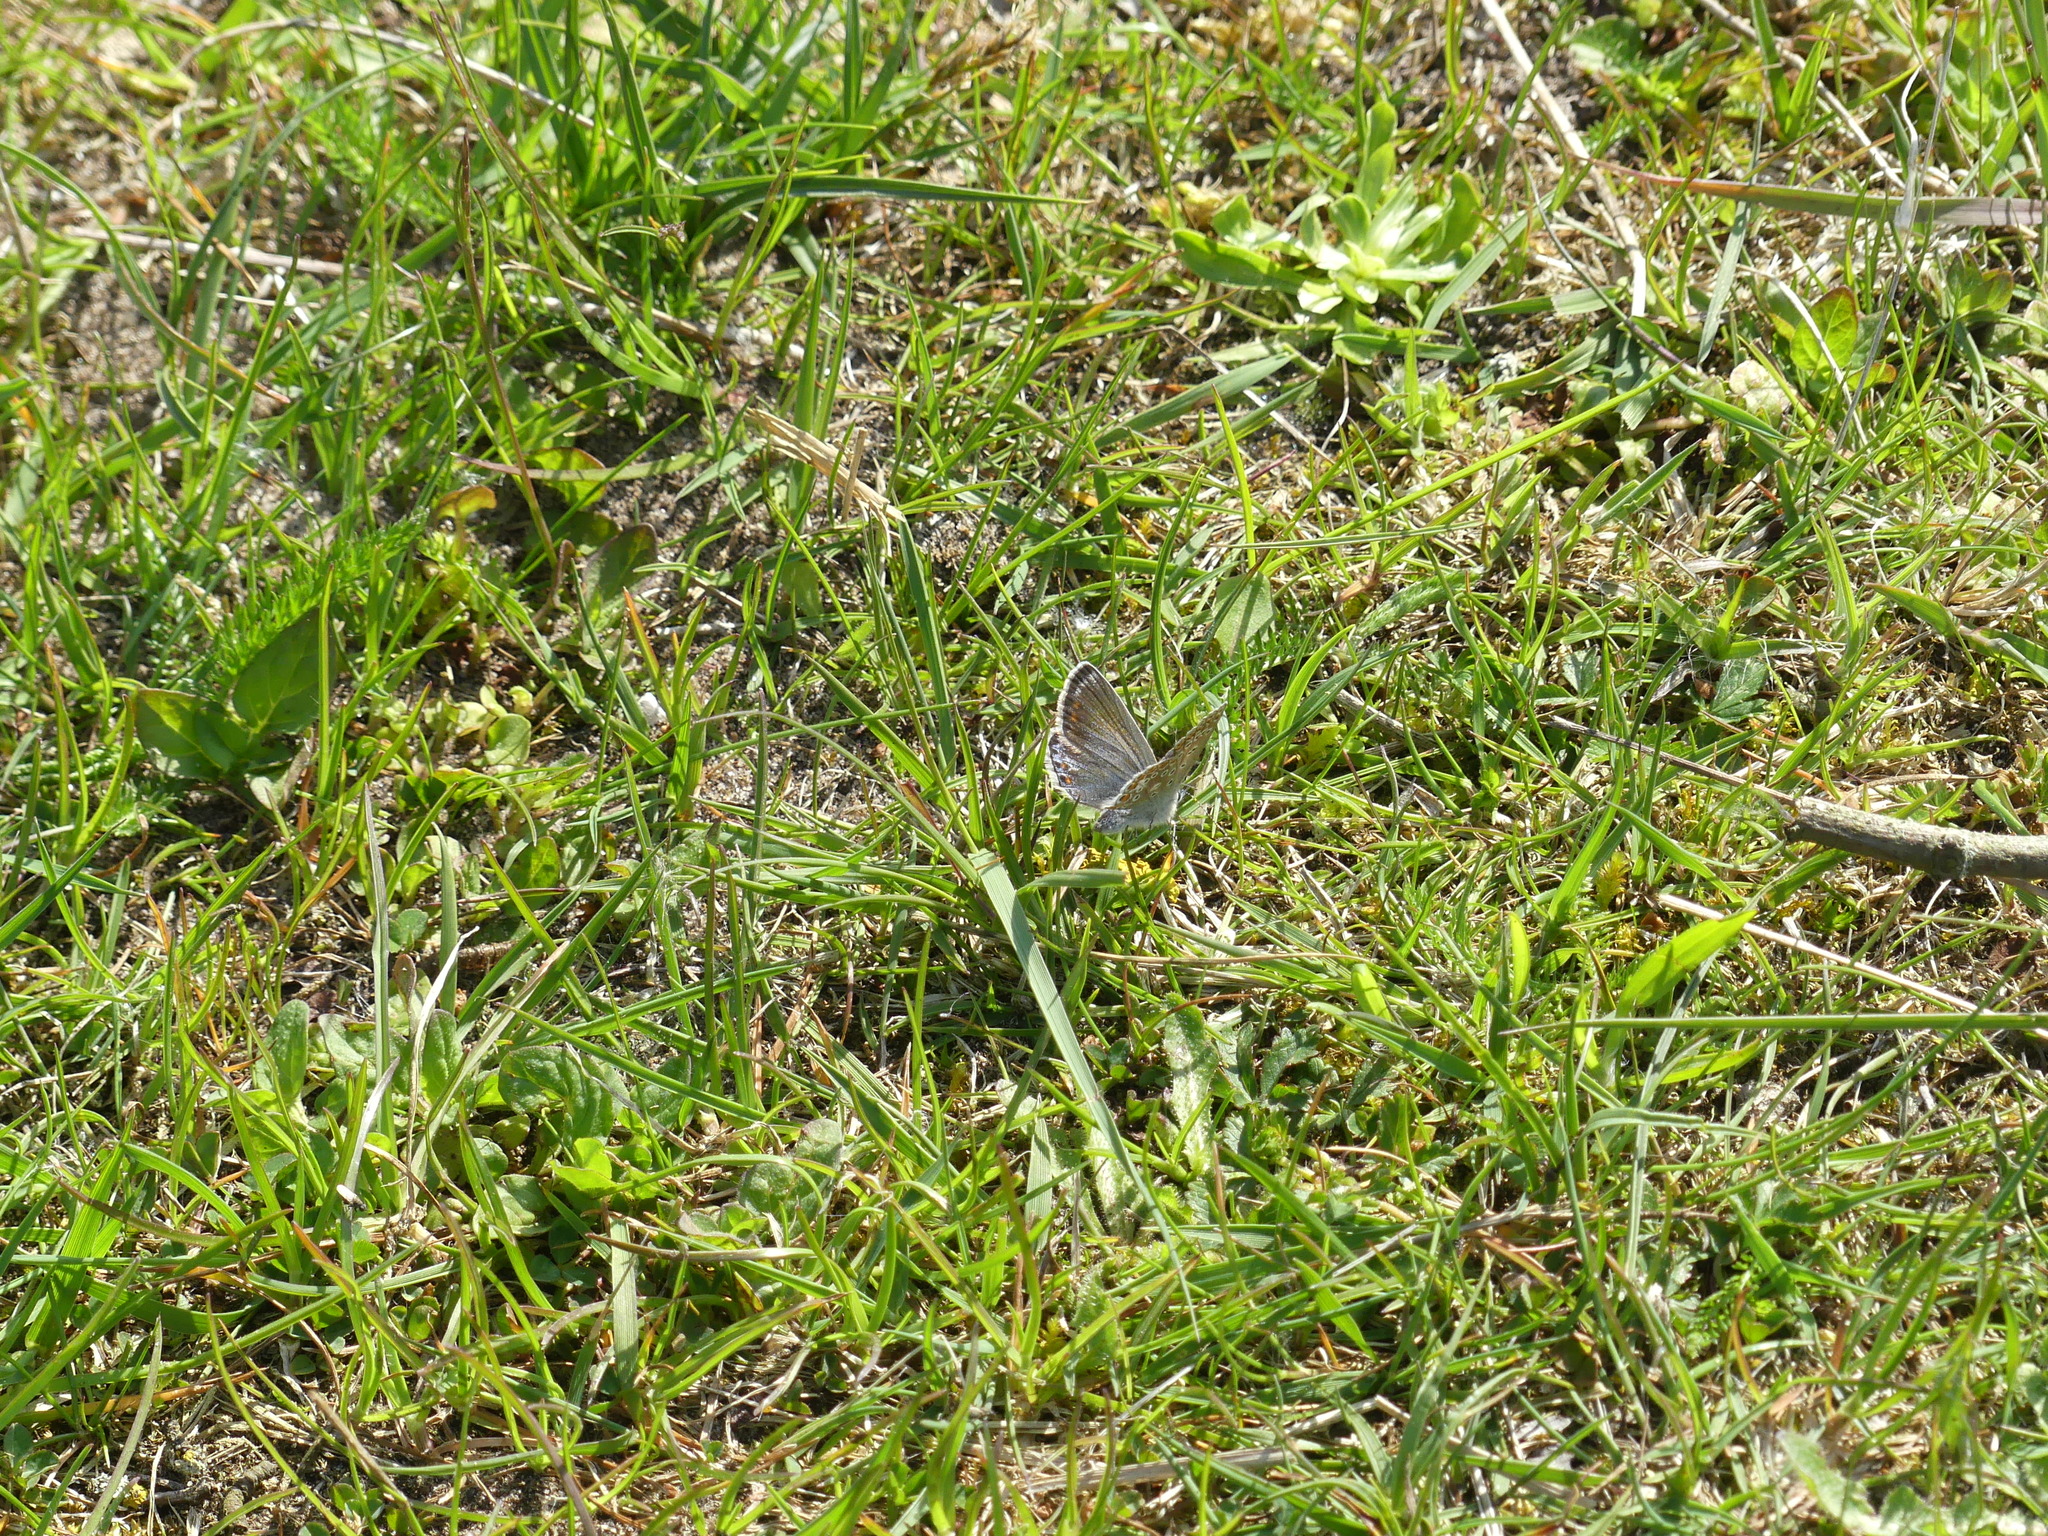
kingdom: Animalia
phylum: Arthropoda
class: Insecta
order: Lepidoptera
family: Lycaenidae
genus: Polyommatus
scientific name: Polyommatus icarus
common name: Common blue
